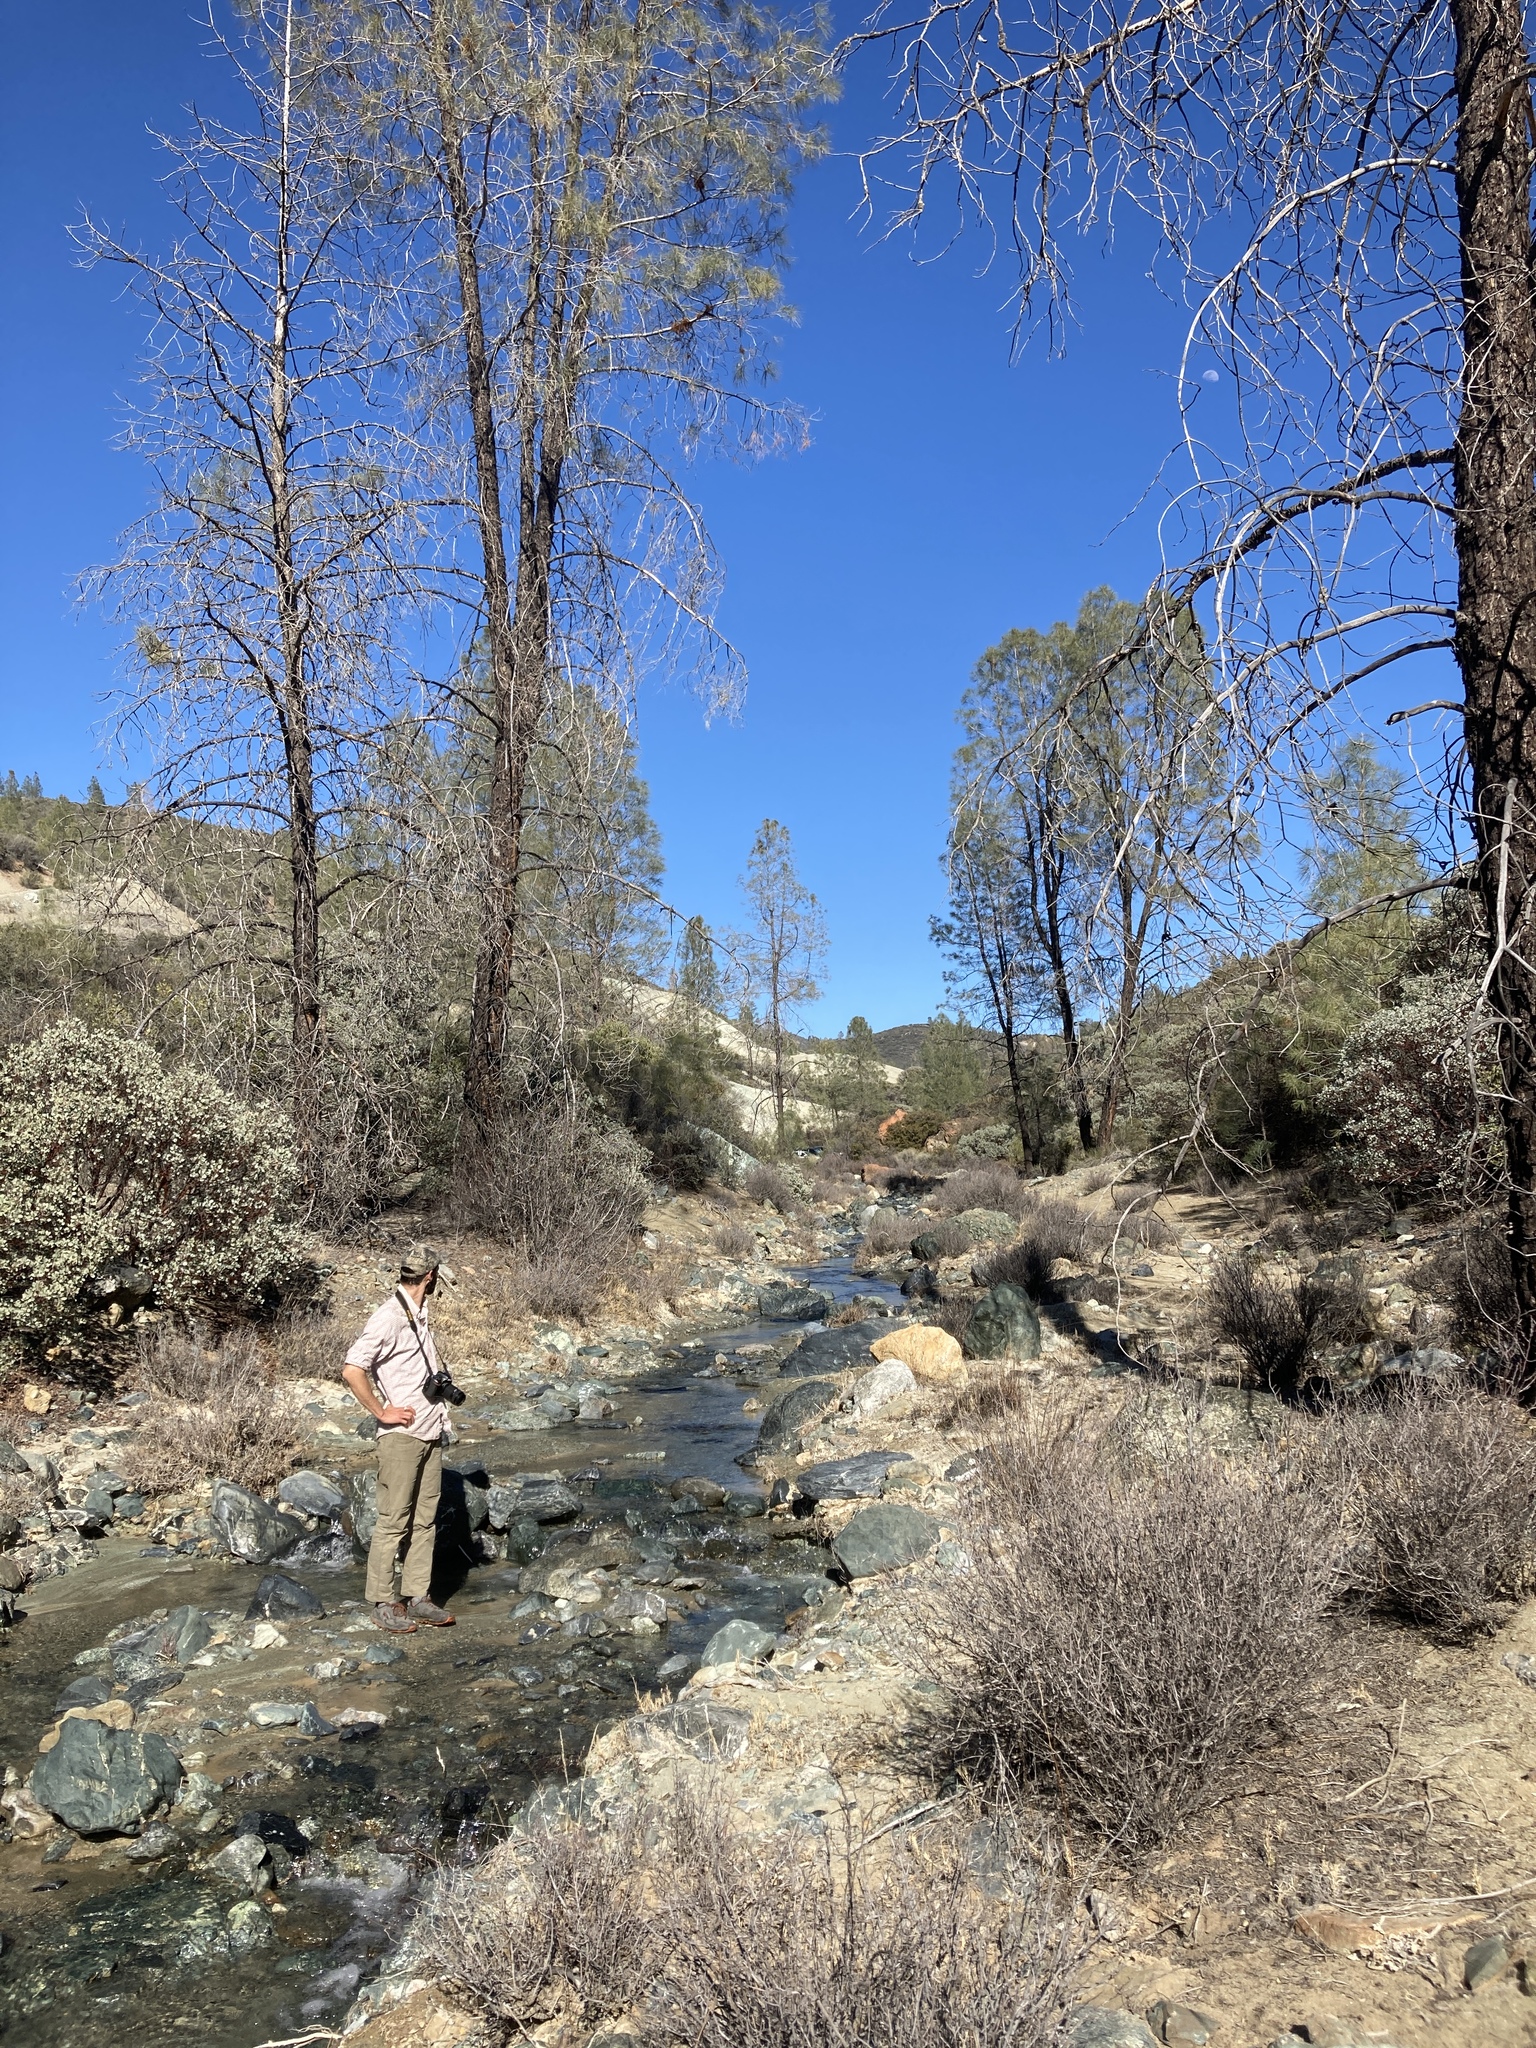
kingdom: Plantae
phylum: Tracheophyta
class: Pinopsida
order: Pinales
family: Pinaceae
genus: Pinus
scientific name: Pinus sabiniana
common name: Bull pine
